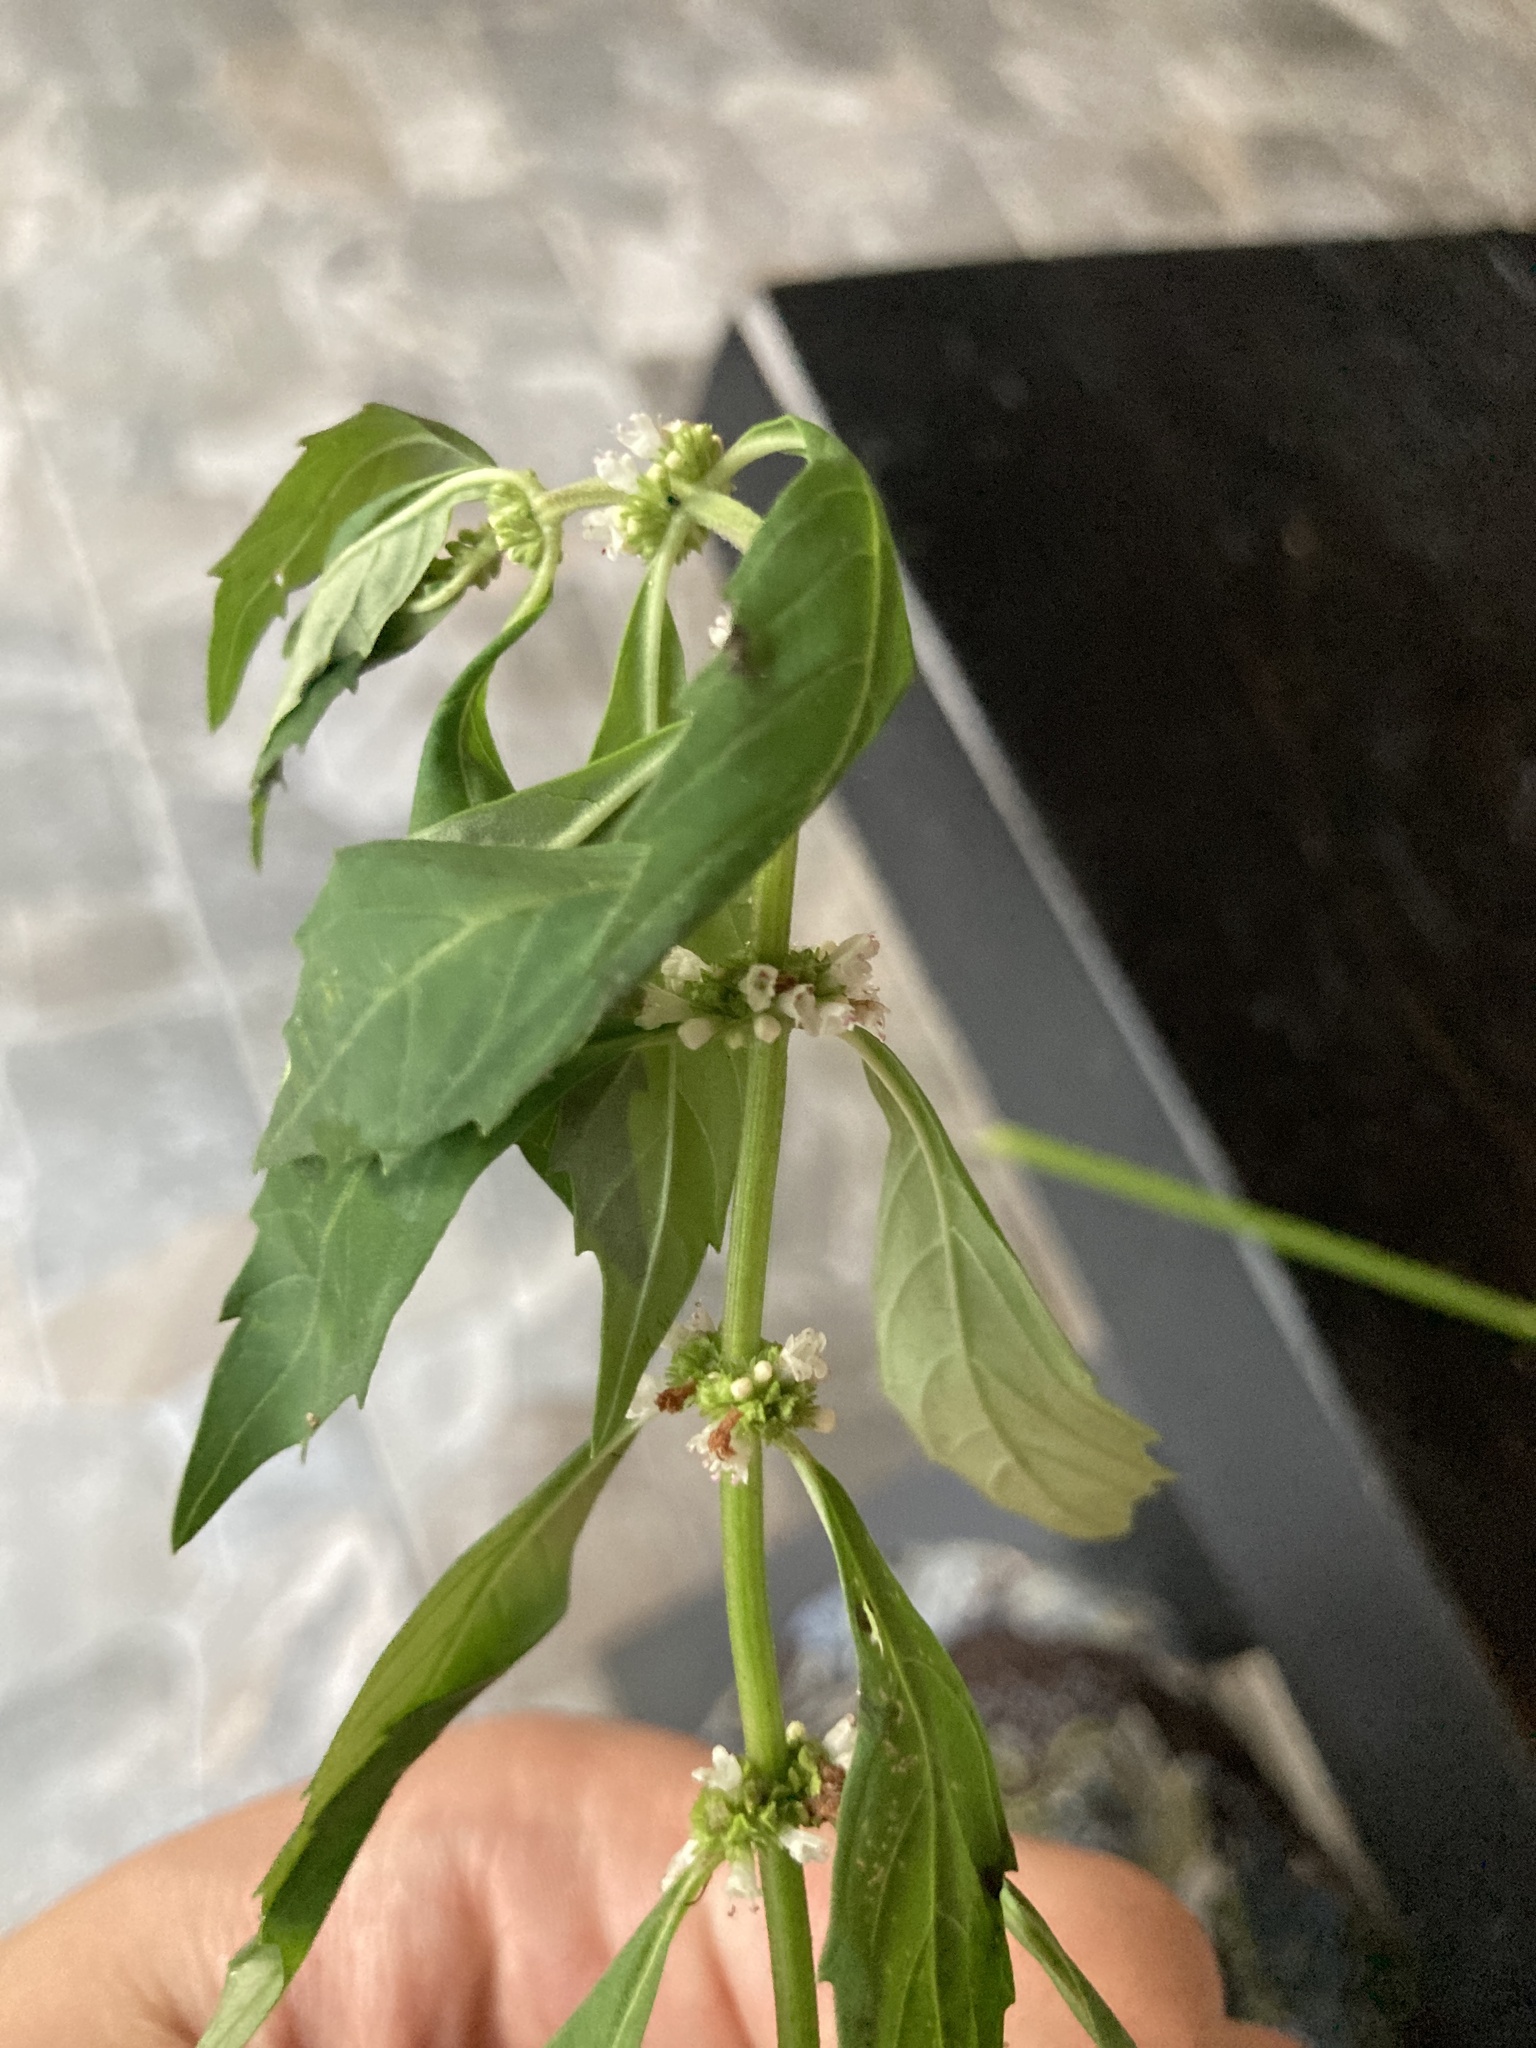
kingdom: Plantae
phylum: Tracheophyta
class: Magnoliopsida
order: Lamiales
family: Lamiaceae
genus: Lycopus
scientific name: Lycopus uniflorus
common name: Northern bugleweed
